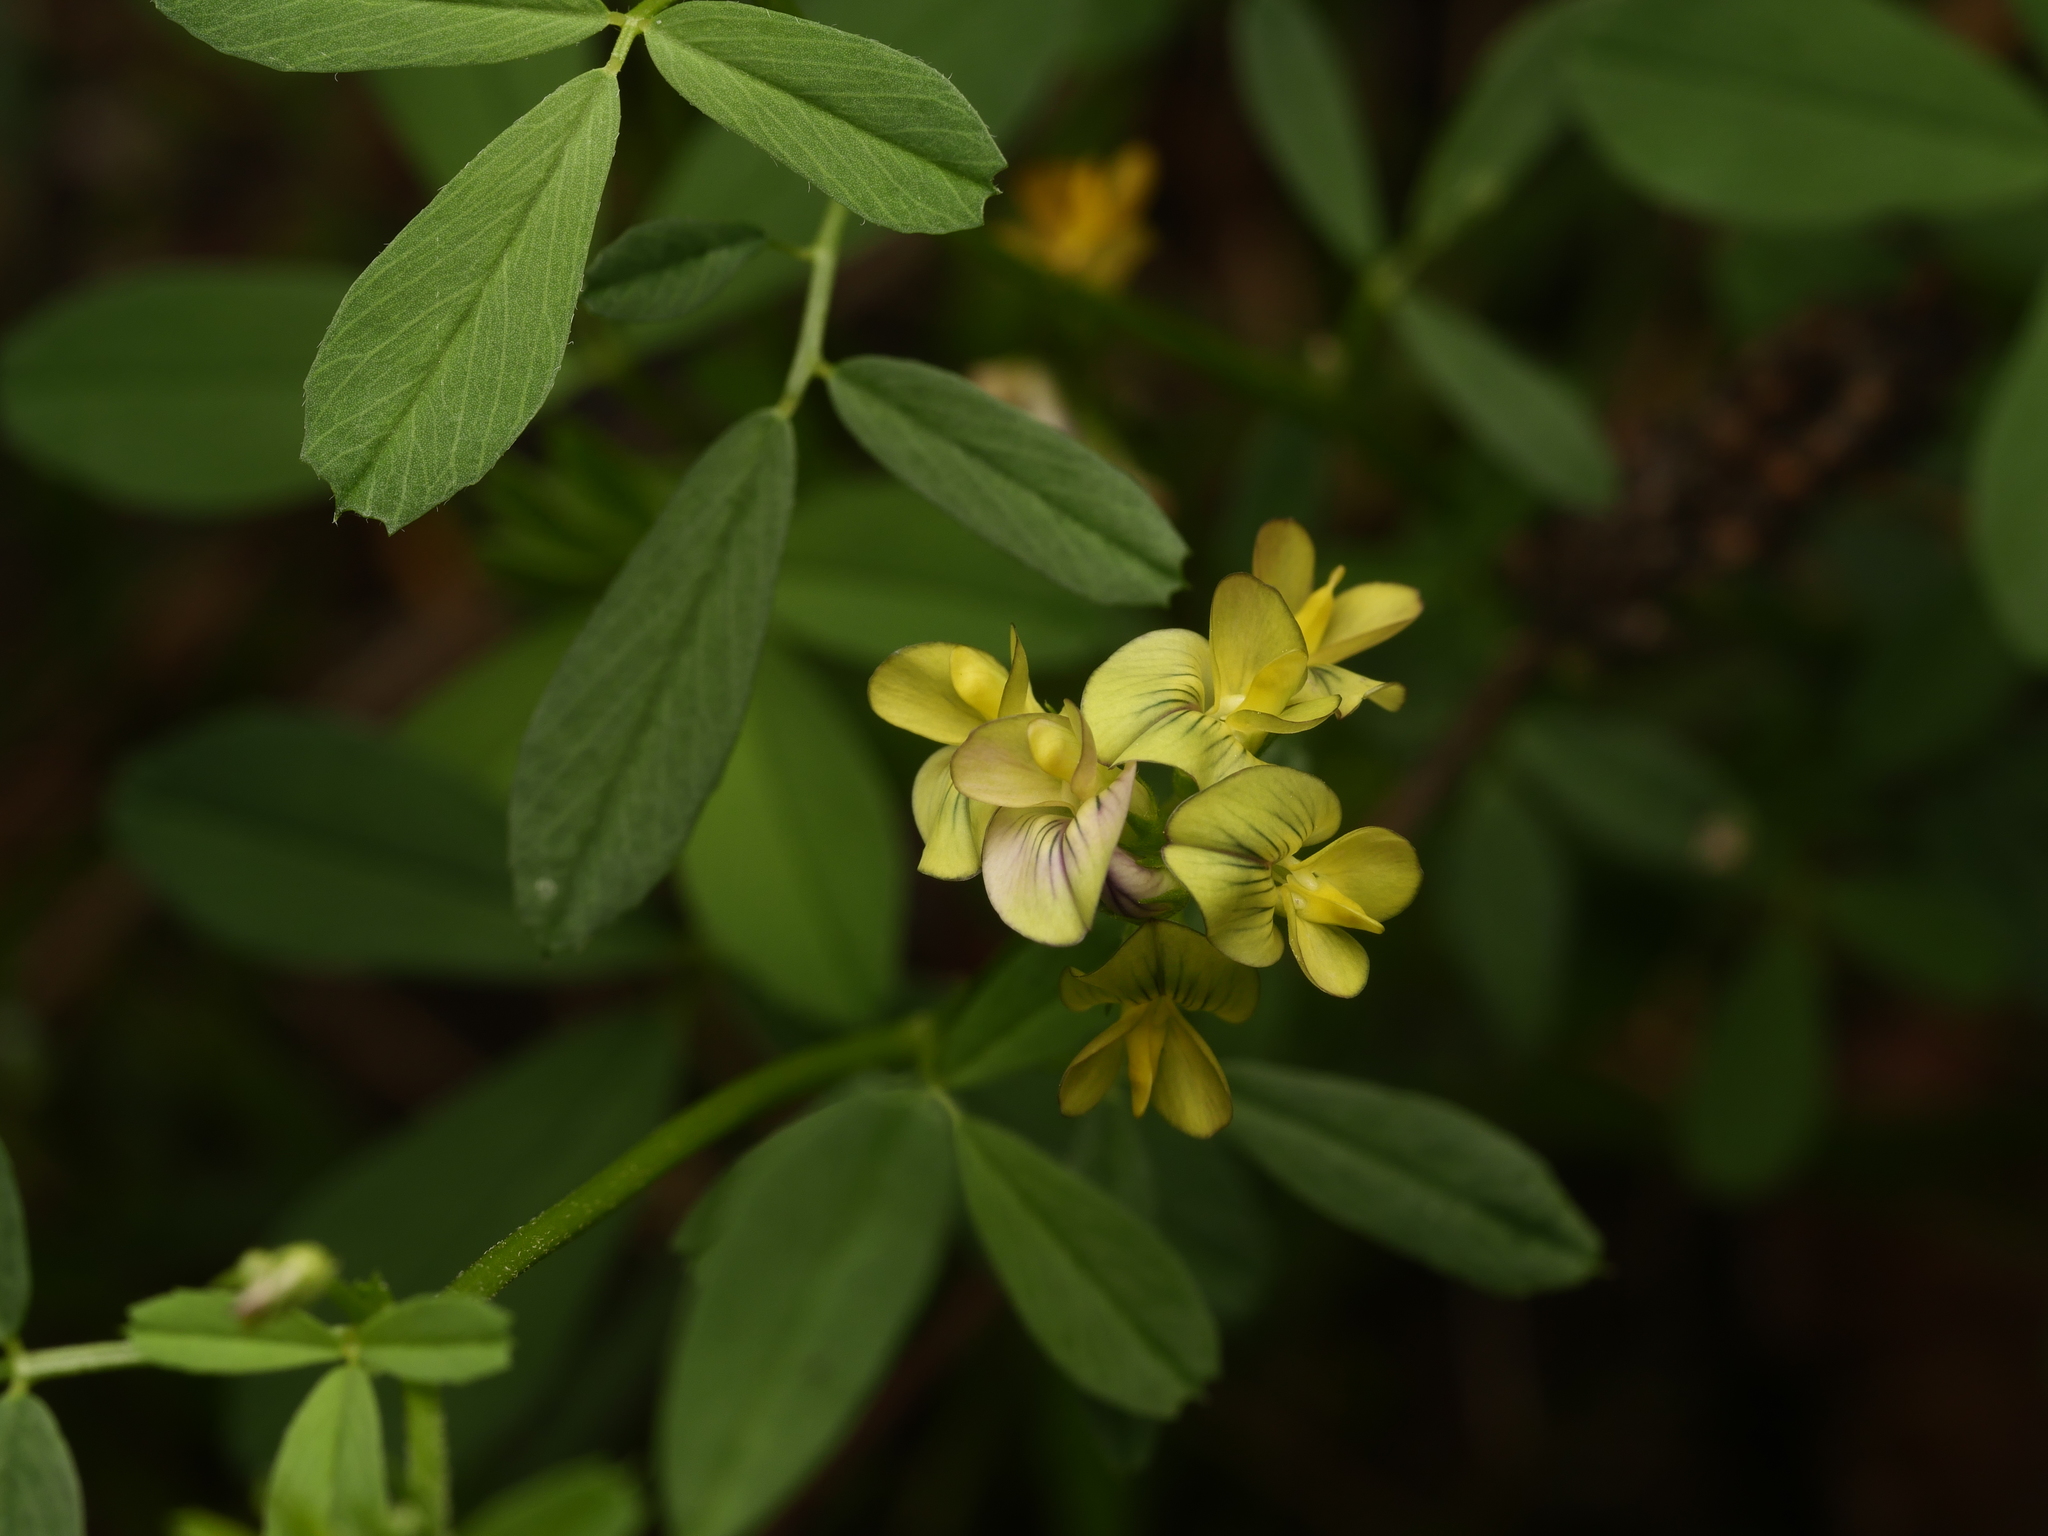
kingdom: Plantae
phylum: Tracheophyta
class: Magnoliopsida
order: Fabales
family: Fabaceae
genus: Medicago
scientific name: Medicago varia
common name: Sand lucerne
